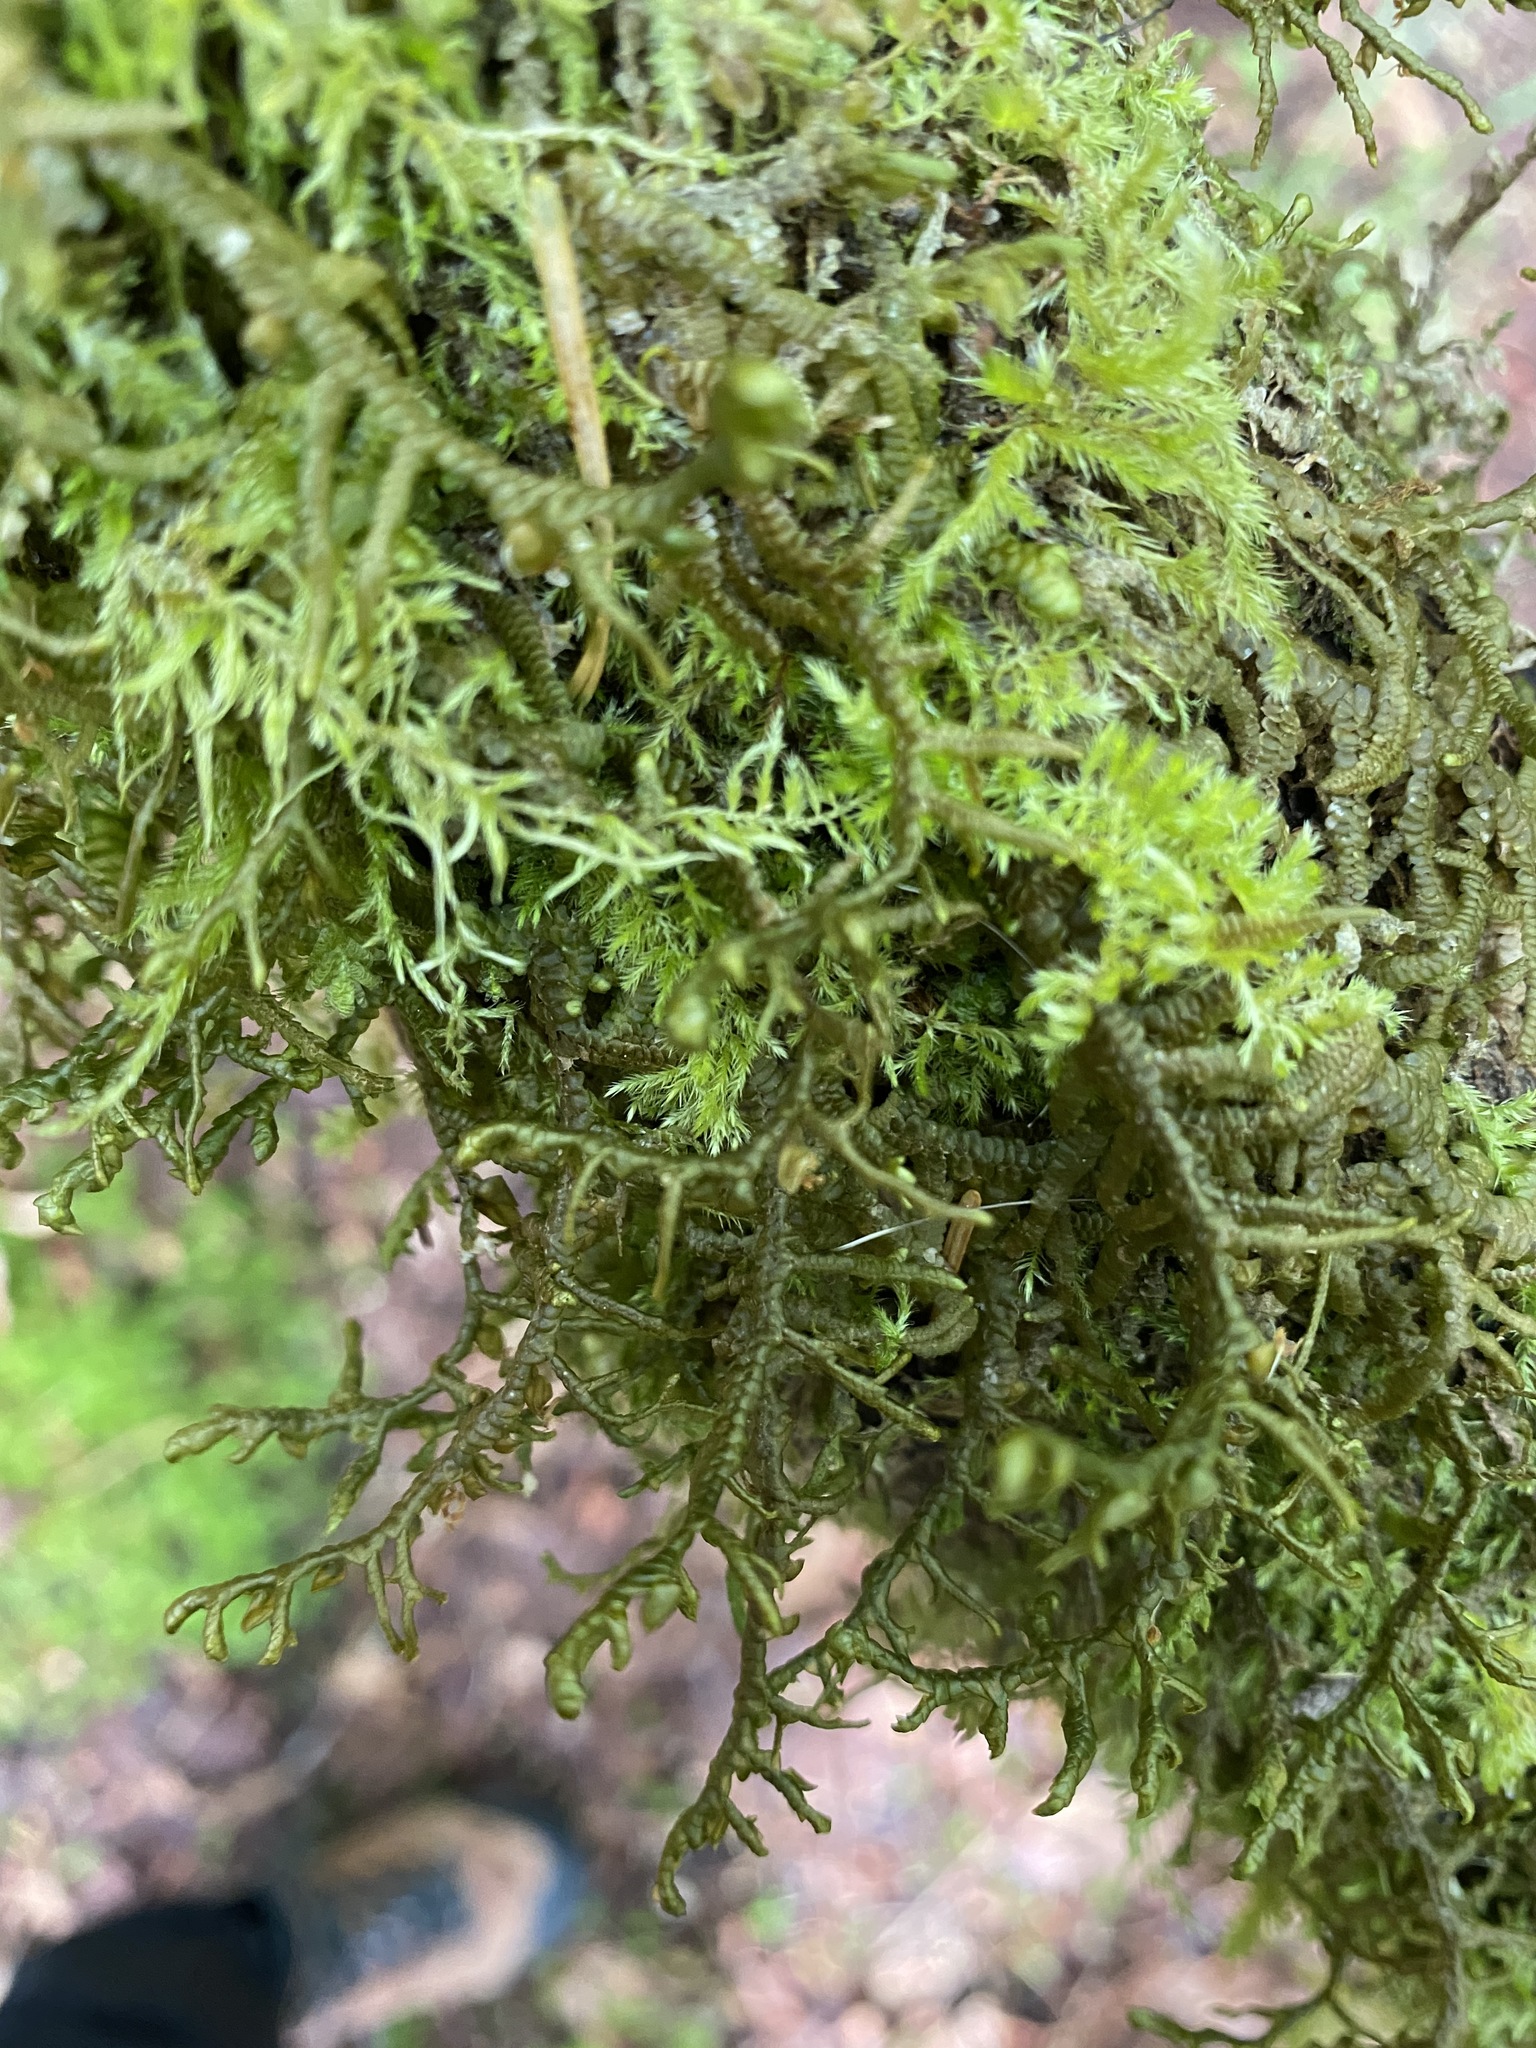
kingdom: Plantae
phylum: Marchantiophyta
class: Jungermanniopsida
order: Porellales
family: Porellaceae
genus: Porella
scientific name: Porella navicularis
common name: Tree ruffle liverwort
